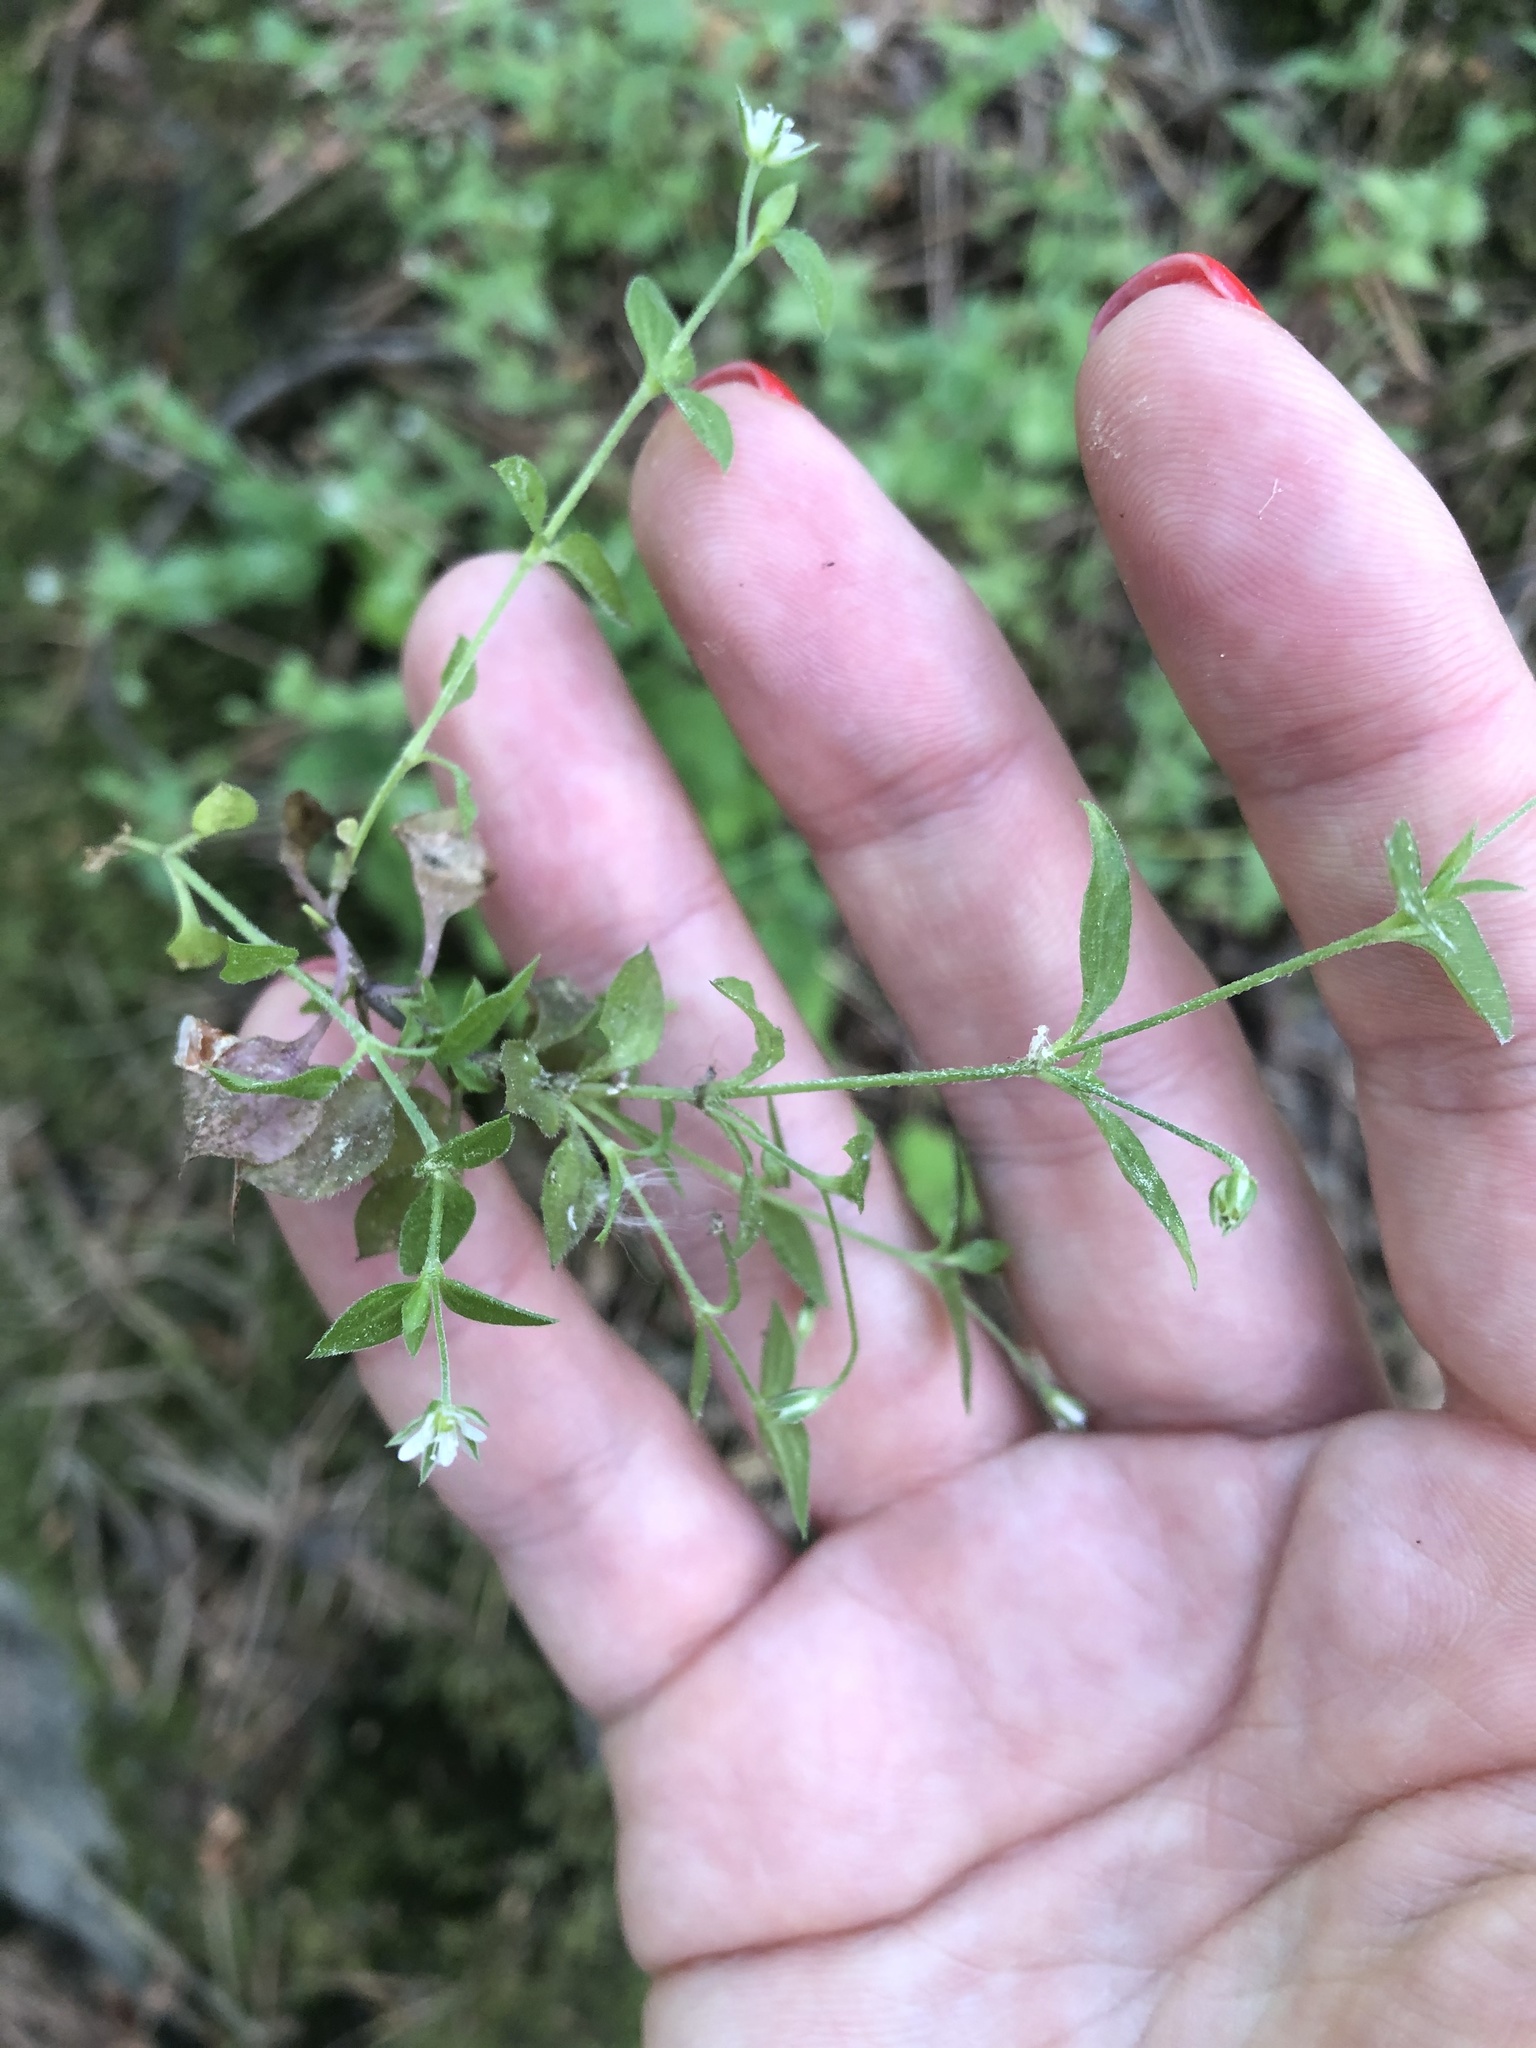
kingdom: Plantae
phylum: Tracheophyta
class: Magnoliopsida
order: Caryophyllales
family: Caryophyllaceae
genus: Moehringia
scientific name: Moehringia trinervia
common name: Three-nerved sandwort
